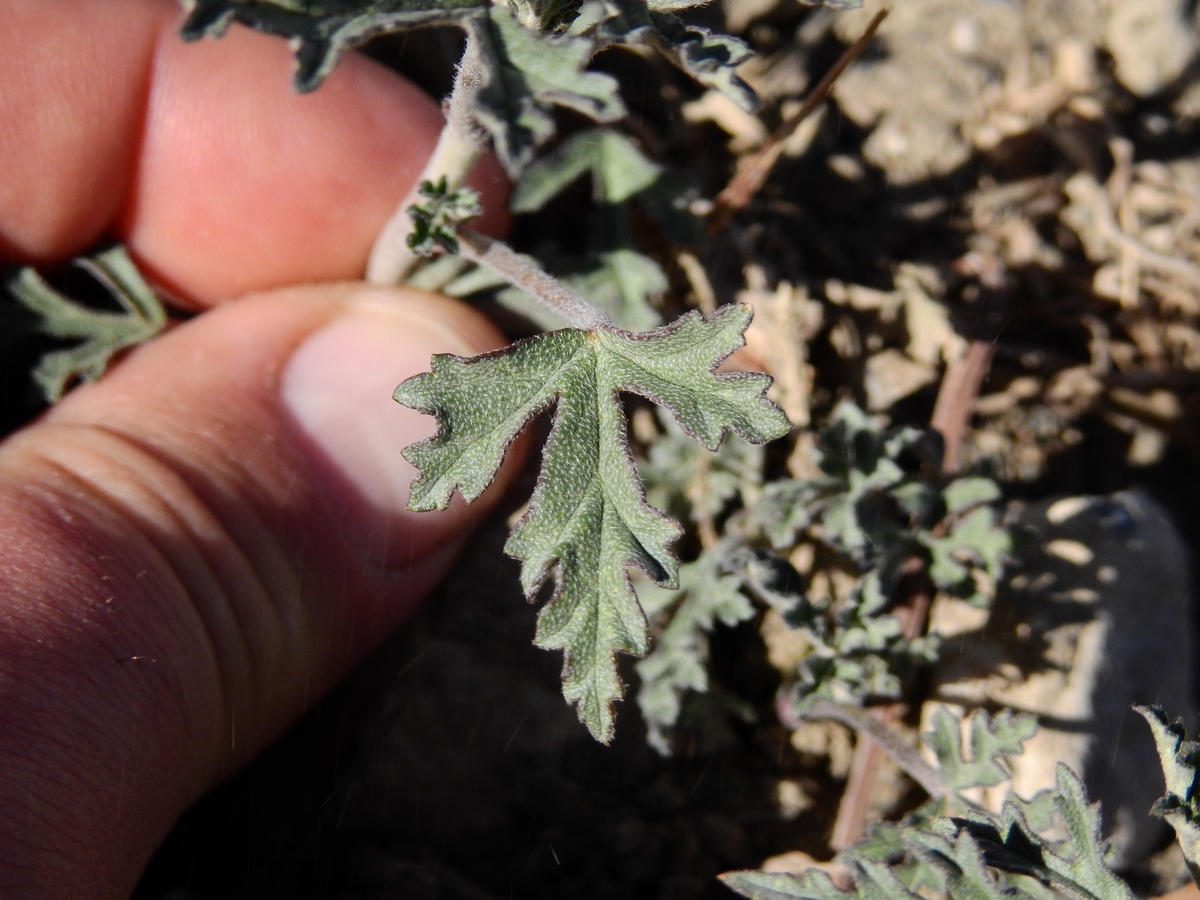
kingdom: Plantae
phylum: Tracheophyta
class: Magnoliopsida
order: Malvales
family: Malvaceae
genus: Lecanophora
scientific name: Lecanophora heterophylla
